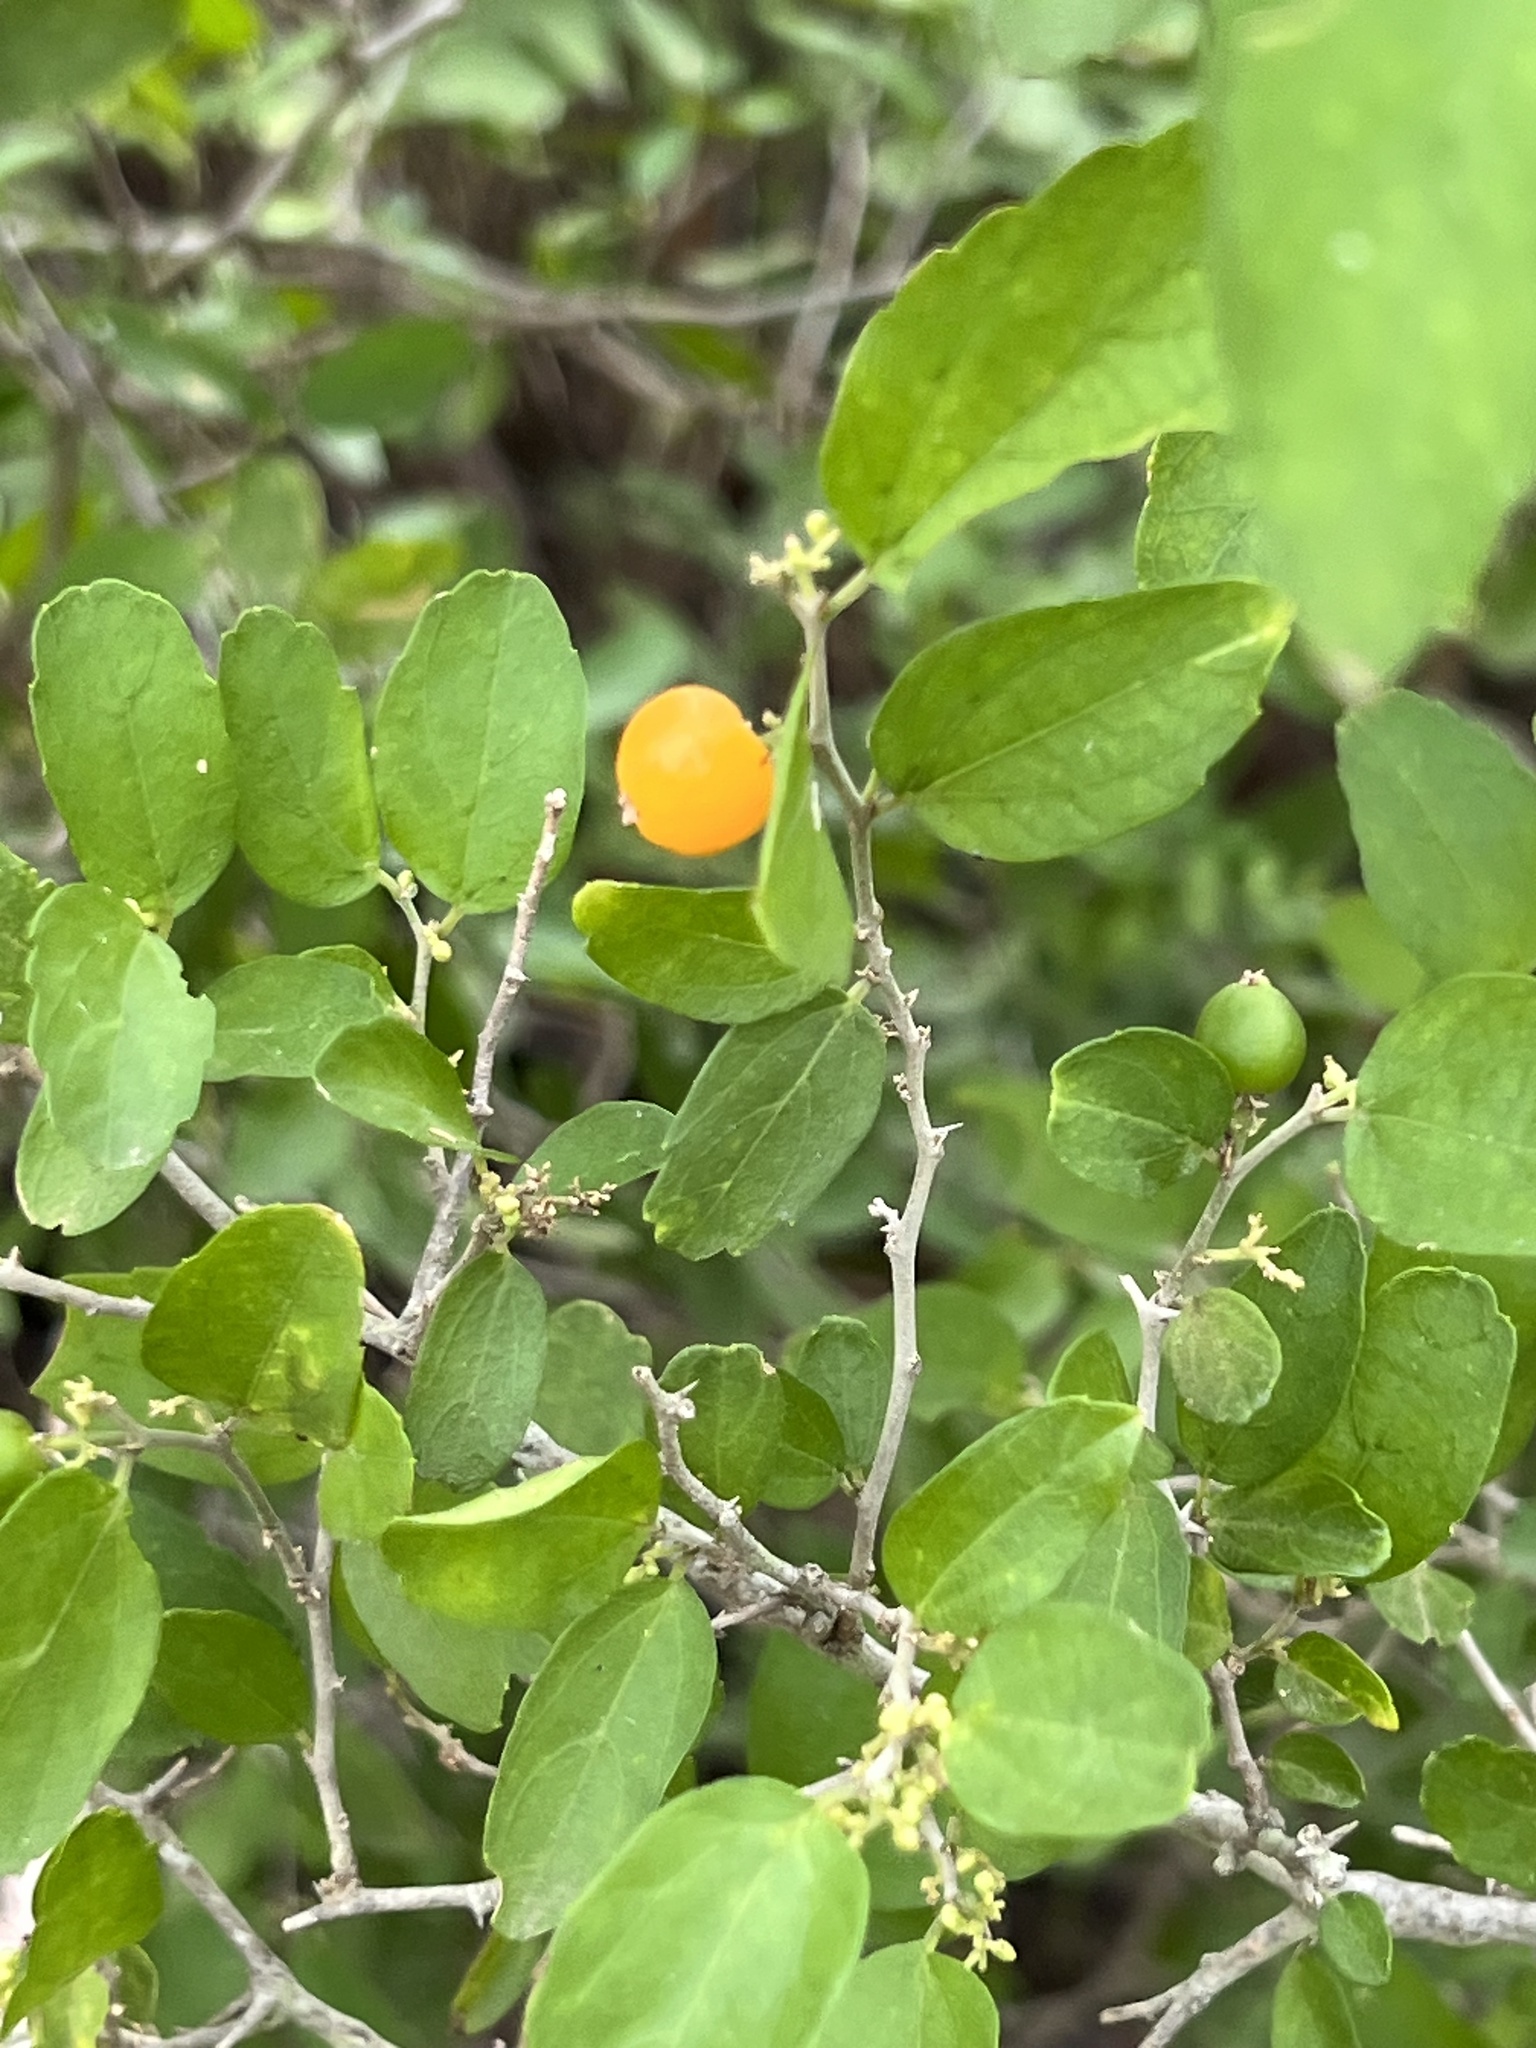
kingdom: Plantae
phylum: Tracheophyta
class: Magnoliopsida
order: Rosales
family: Cannabaceae
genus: Celtis
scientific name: Celtis pallida
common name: Desert hackberry
